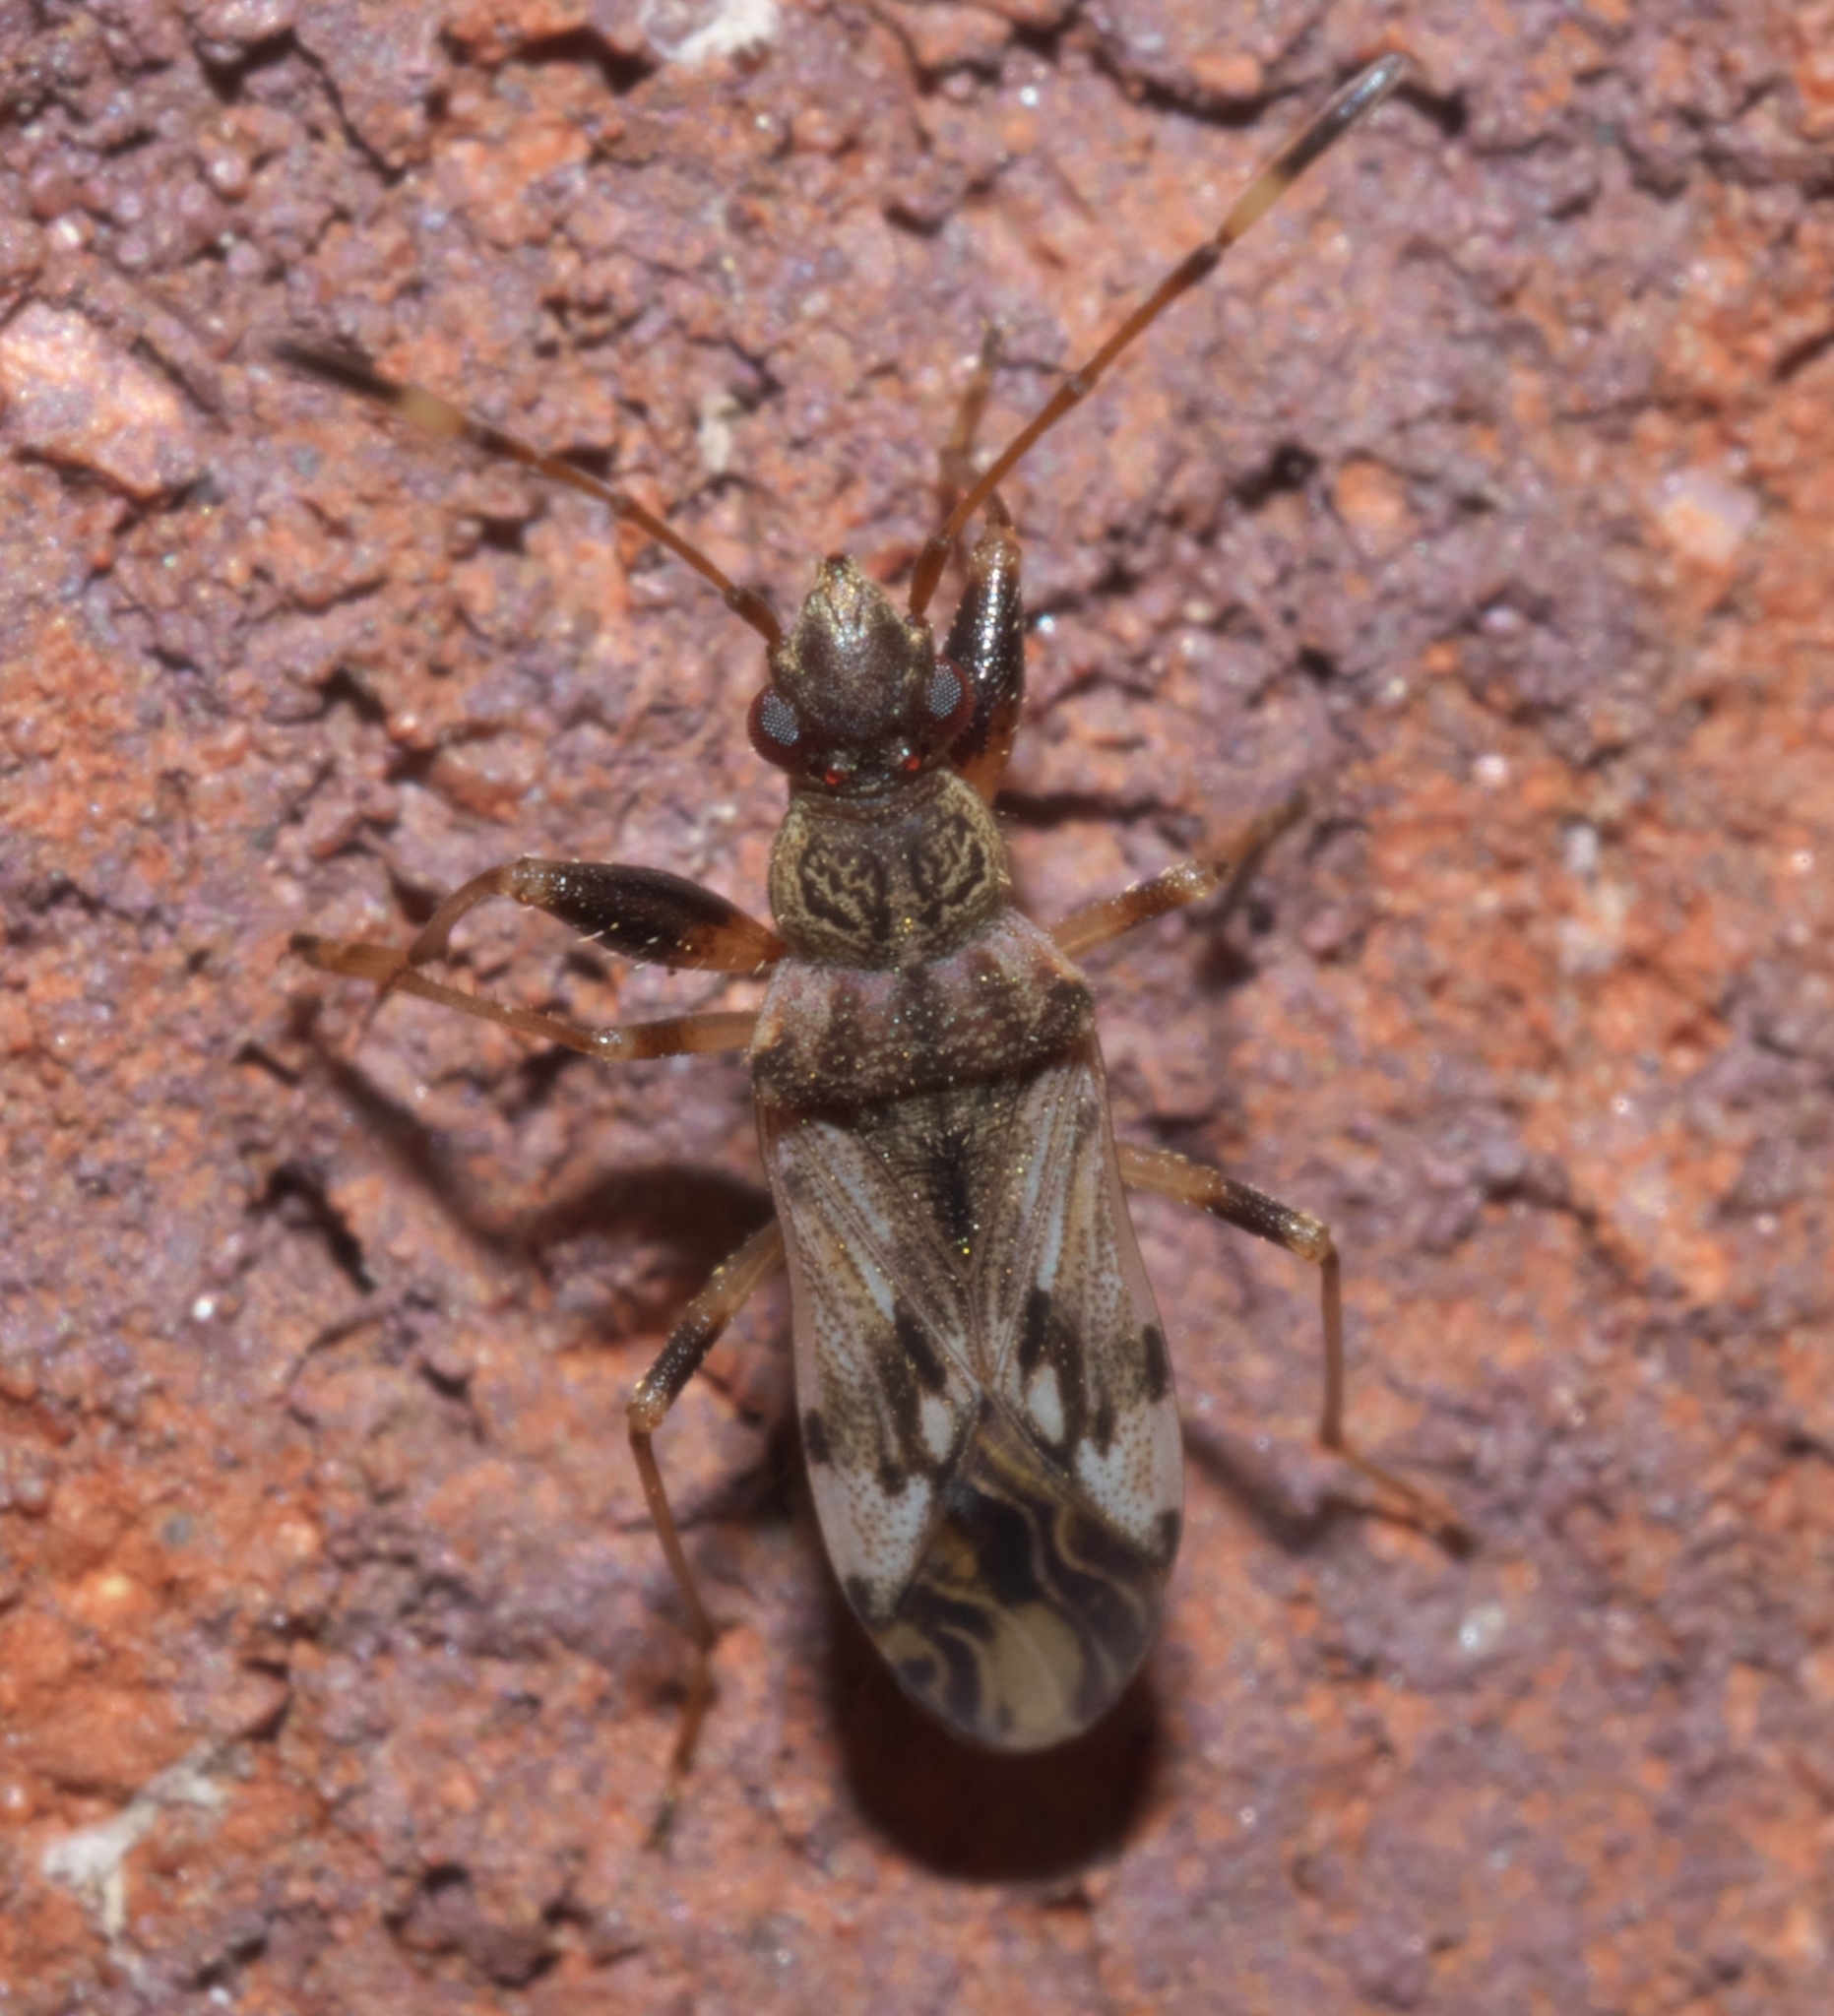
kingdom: Animalia
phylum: Arthropoda
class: Insecta
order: Hemiptera
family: Rhyparochromidae
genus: Neopamera
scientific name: Neopamera albocincta
